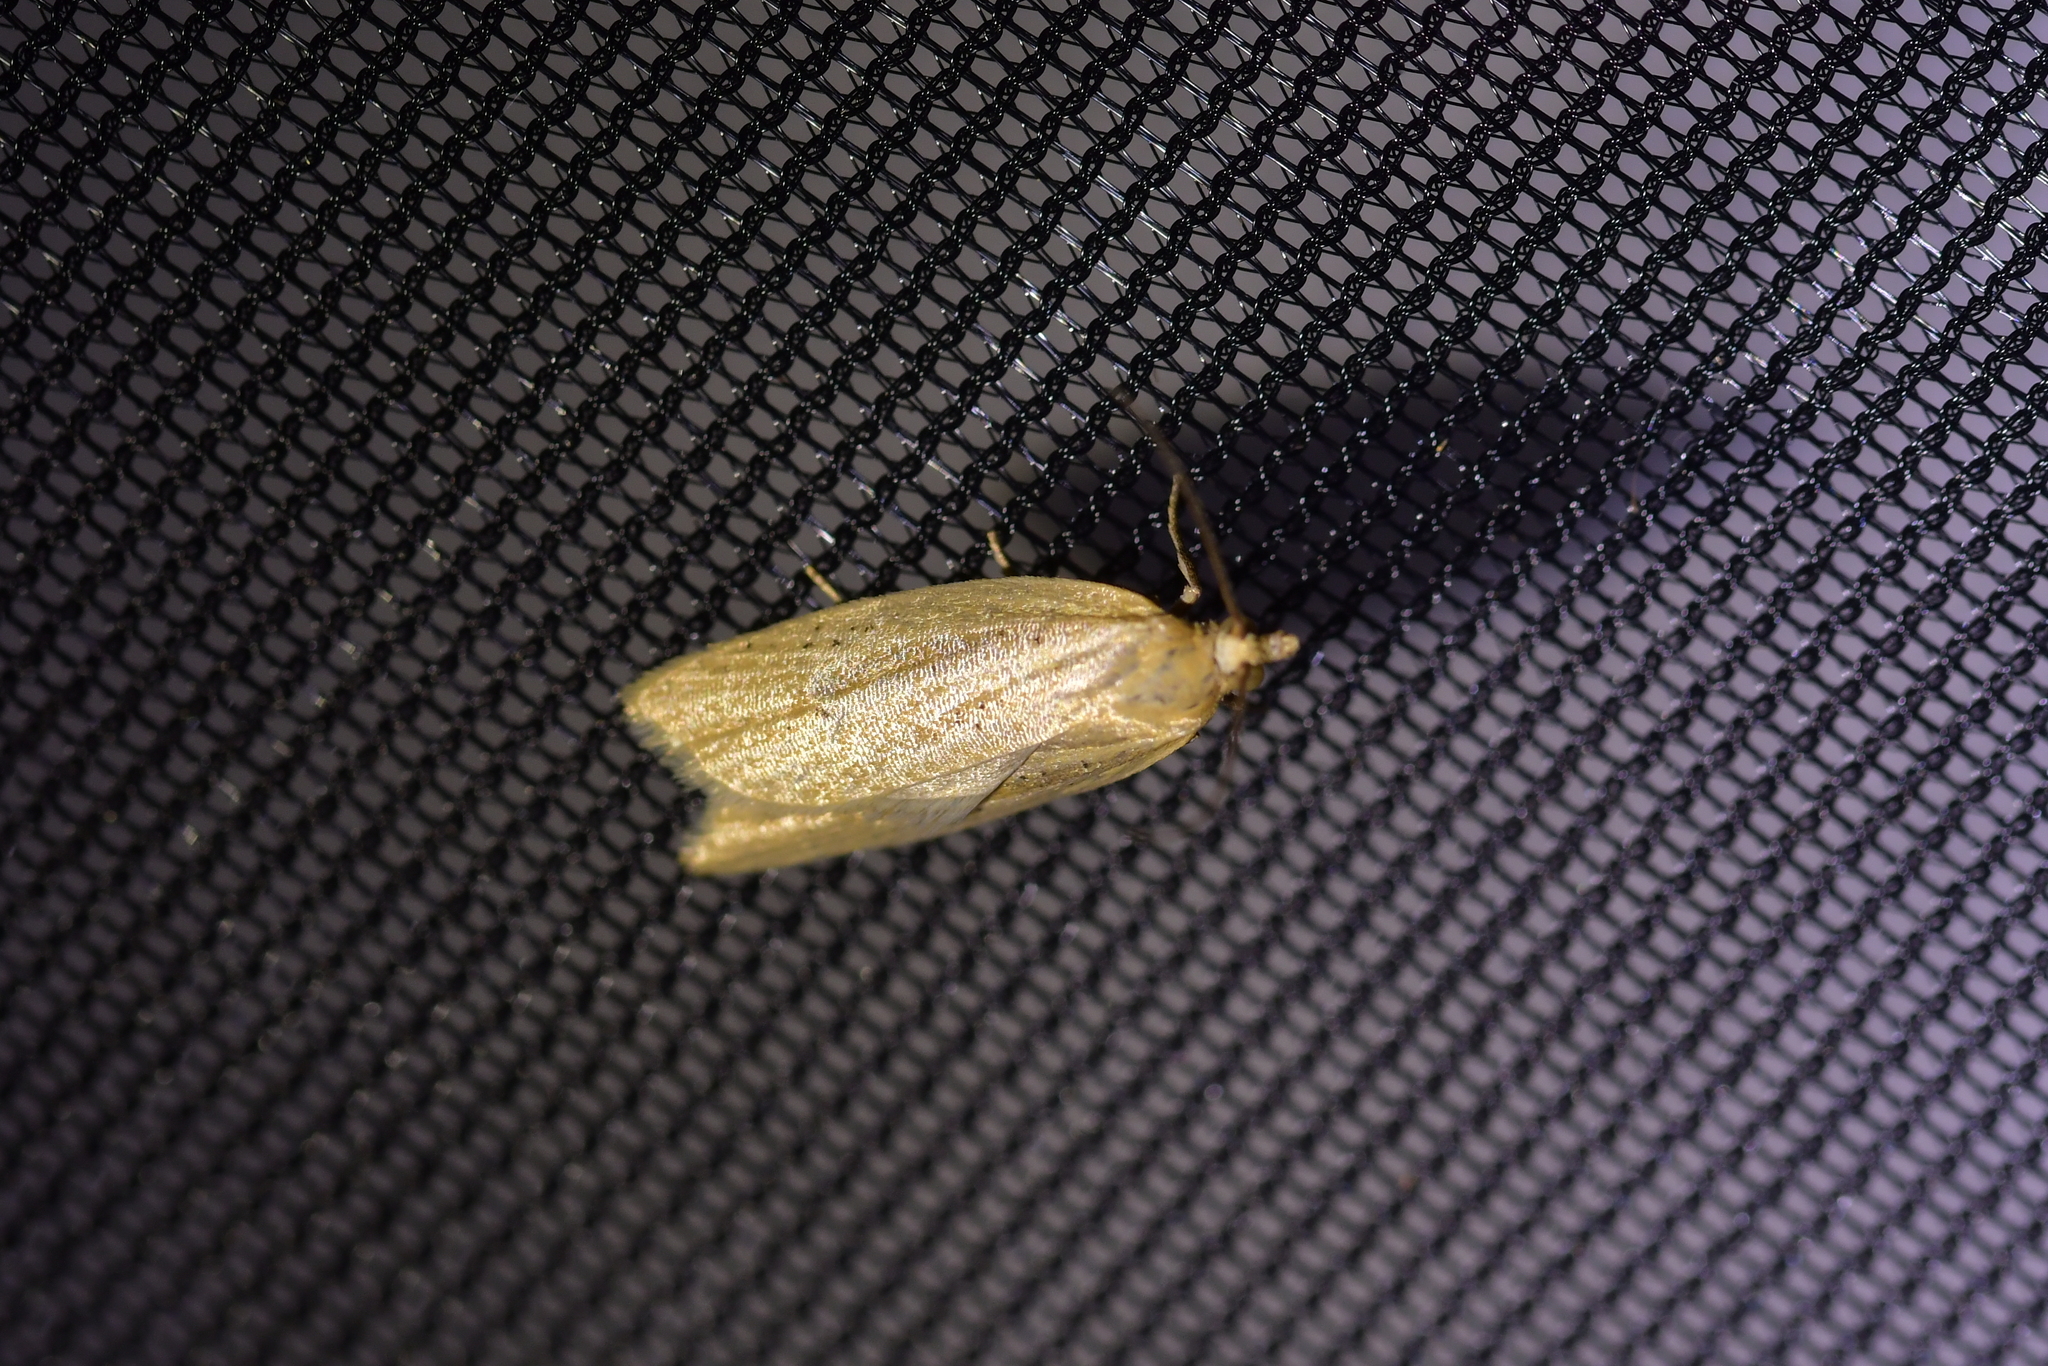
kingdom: Animalia
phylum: Arthropoda
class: Insecta
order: Lepidoptera
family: Tortricidae
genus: Clepsis
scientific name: Clepsis
